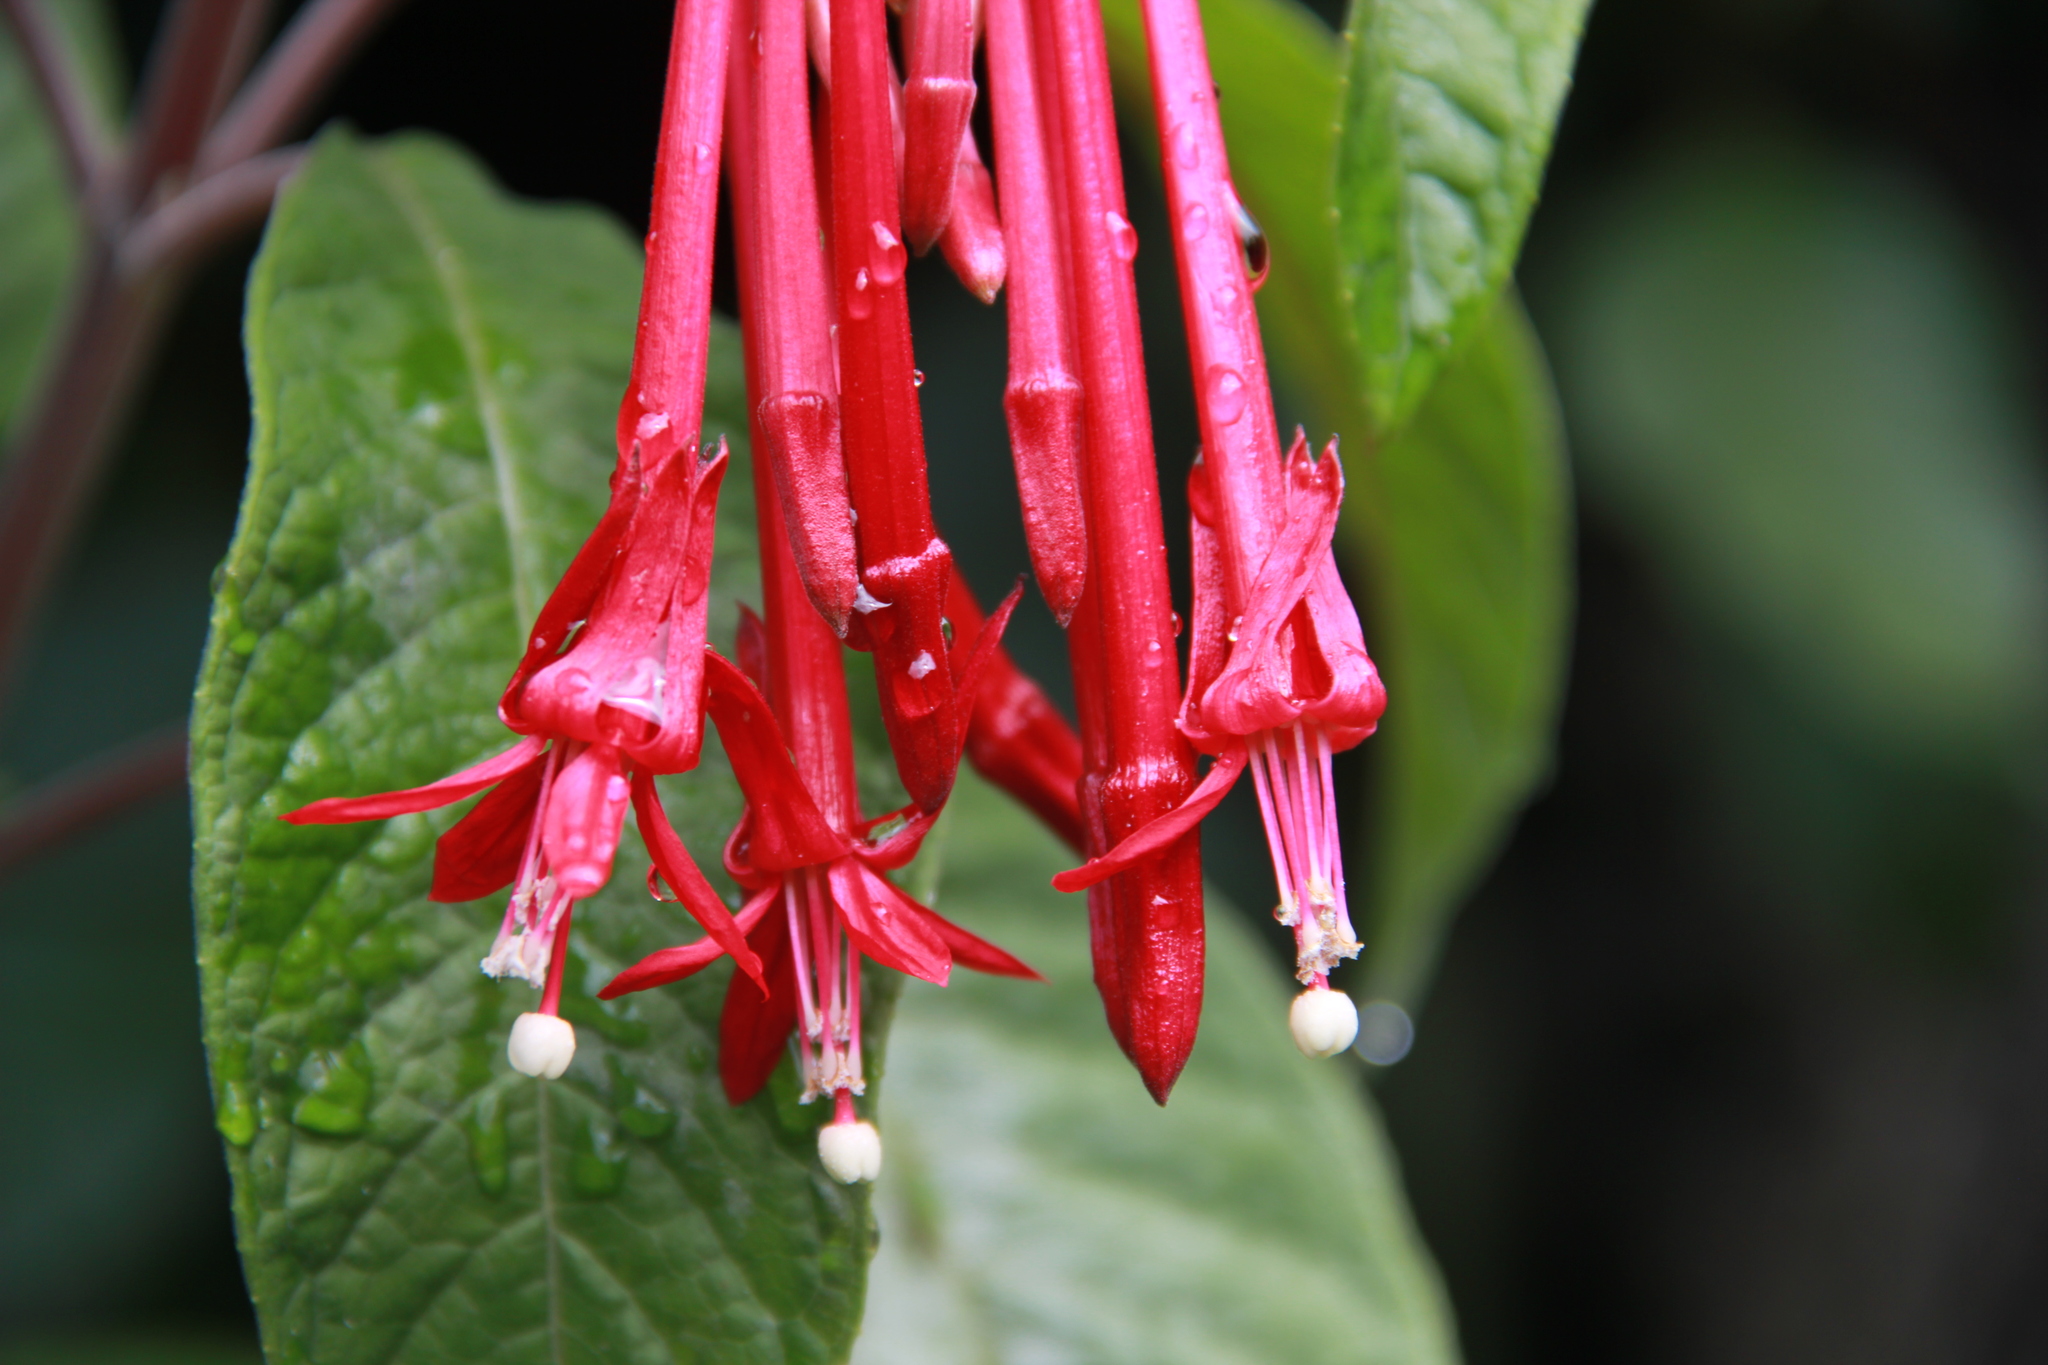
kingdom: Plantae
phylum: Tracheophyta
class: Magnoliopsida
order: Myrtales
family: Onagraceae
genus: Fuchsia
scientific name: Fuchsia boliviana
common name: Bolivian fuchsia
